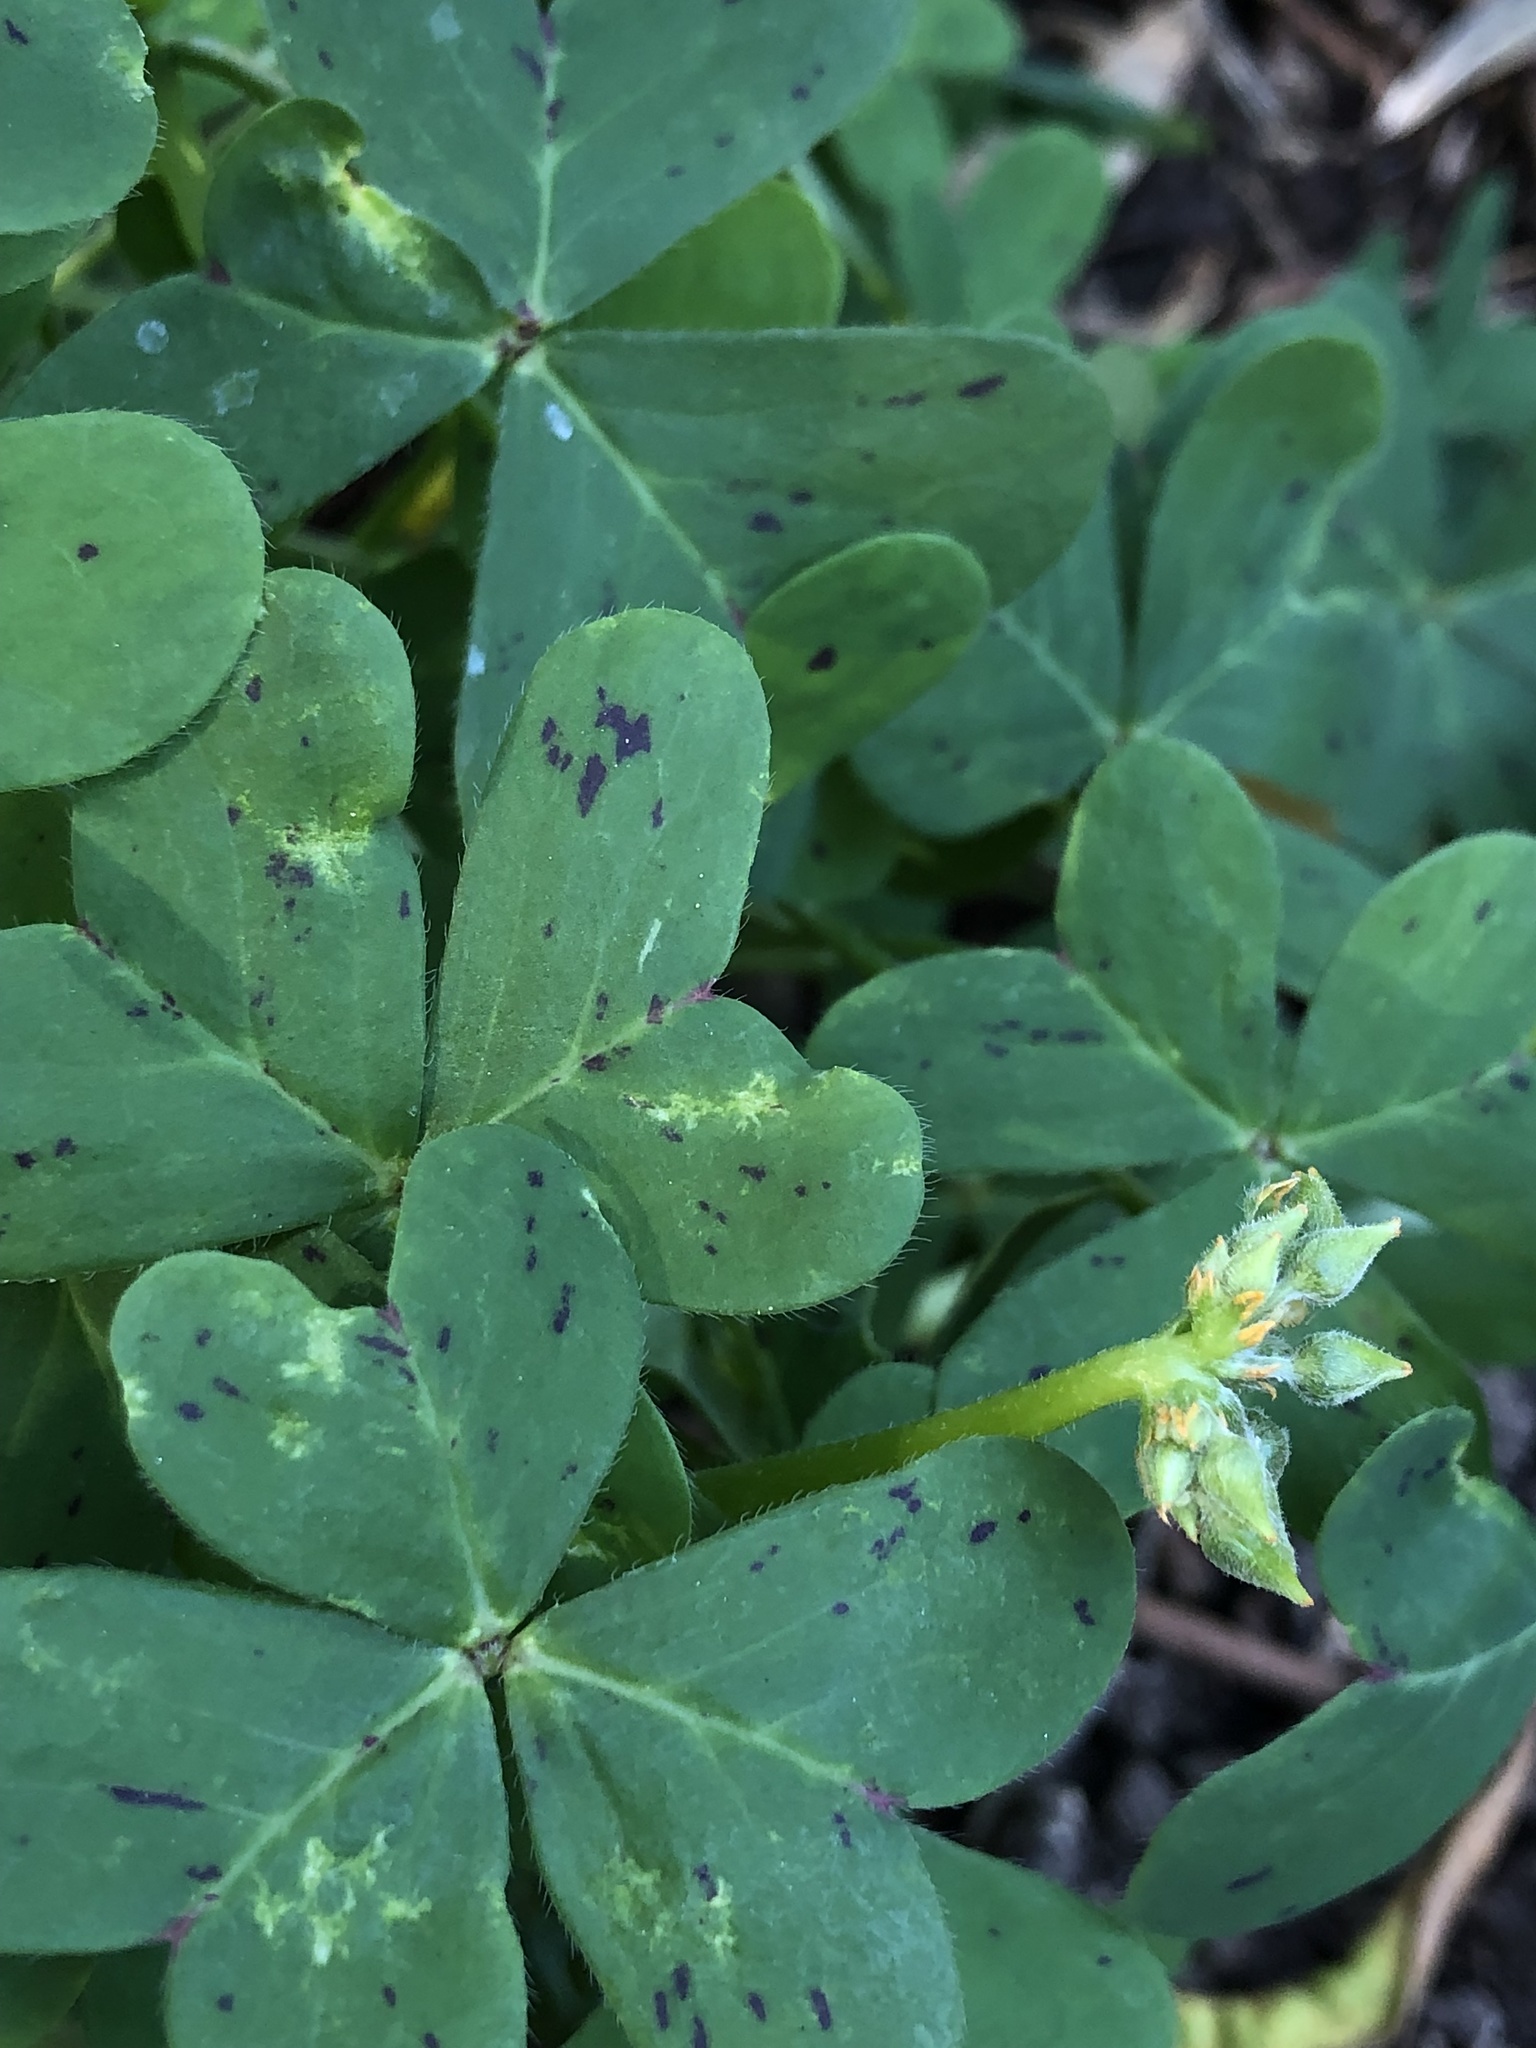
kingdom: Plantae
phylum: Tracheophyta
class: Magnoliopsida
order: Oxalidales
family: Oxalidaceae
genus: Oxalis
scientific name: Oxalis pes-caprae
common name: Bermuda-buttercup
